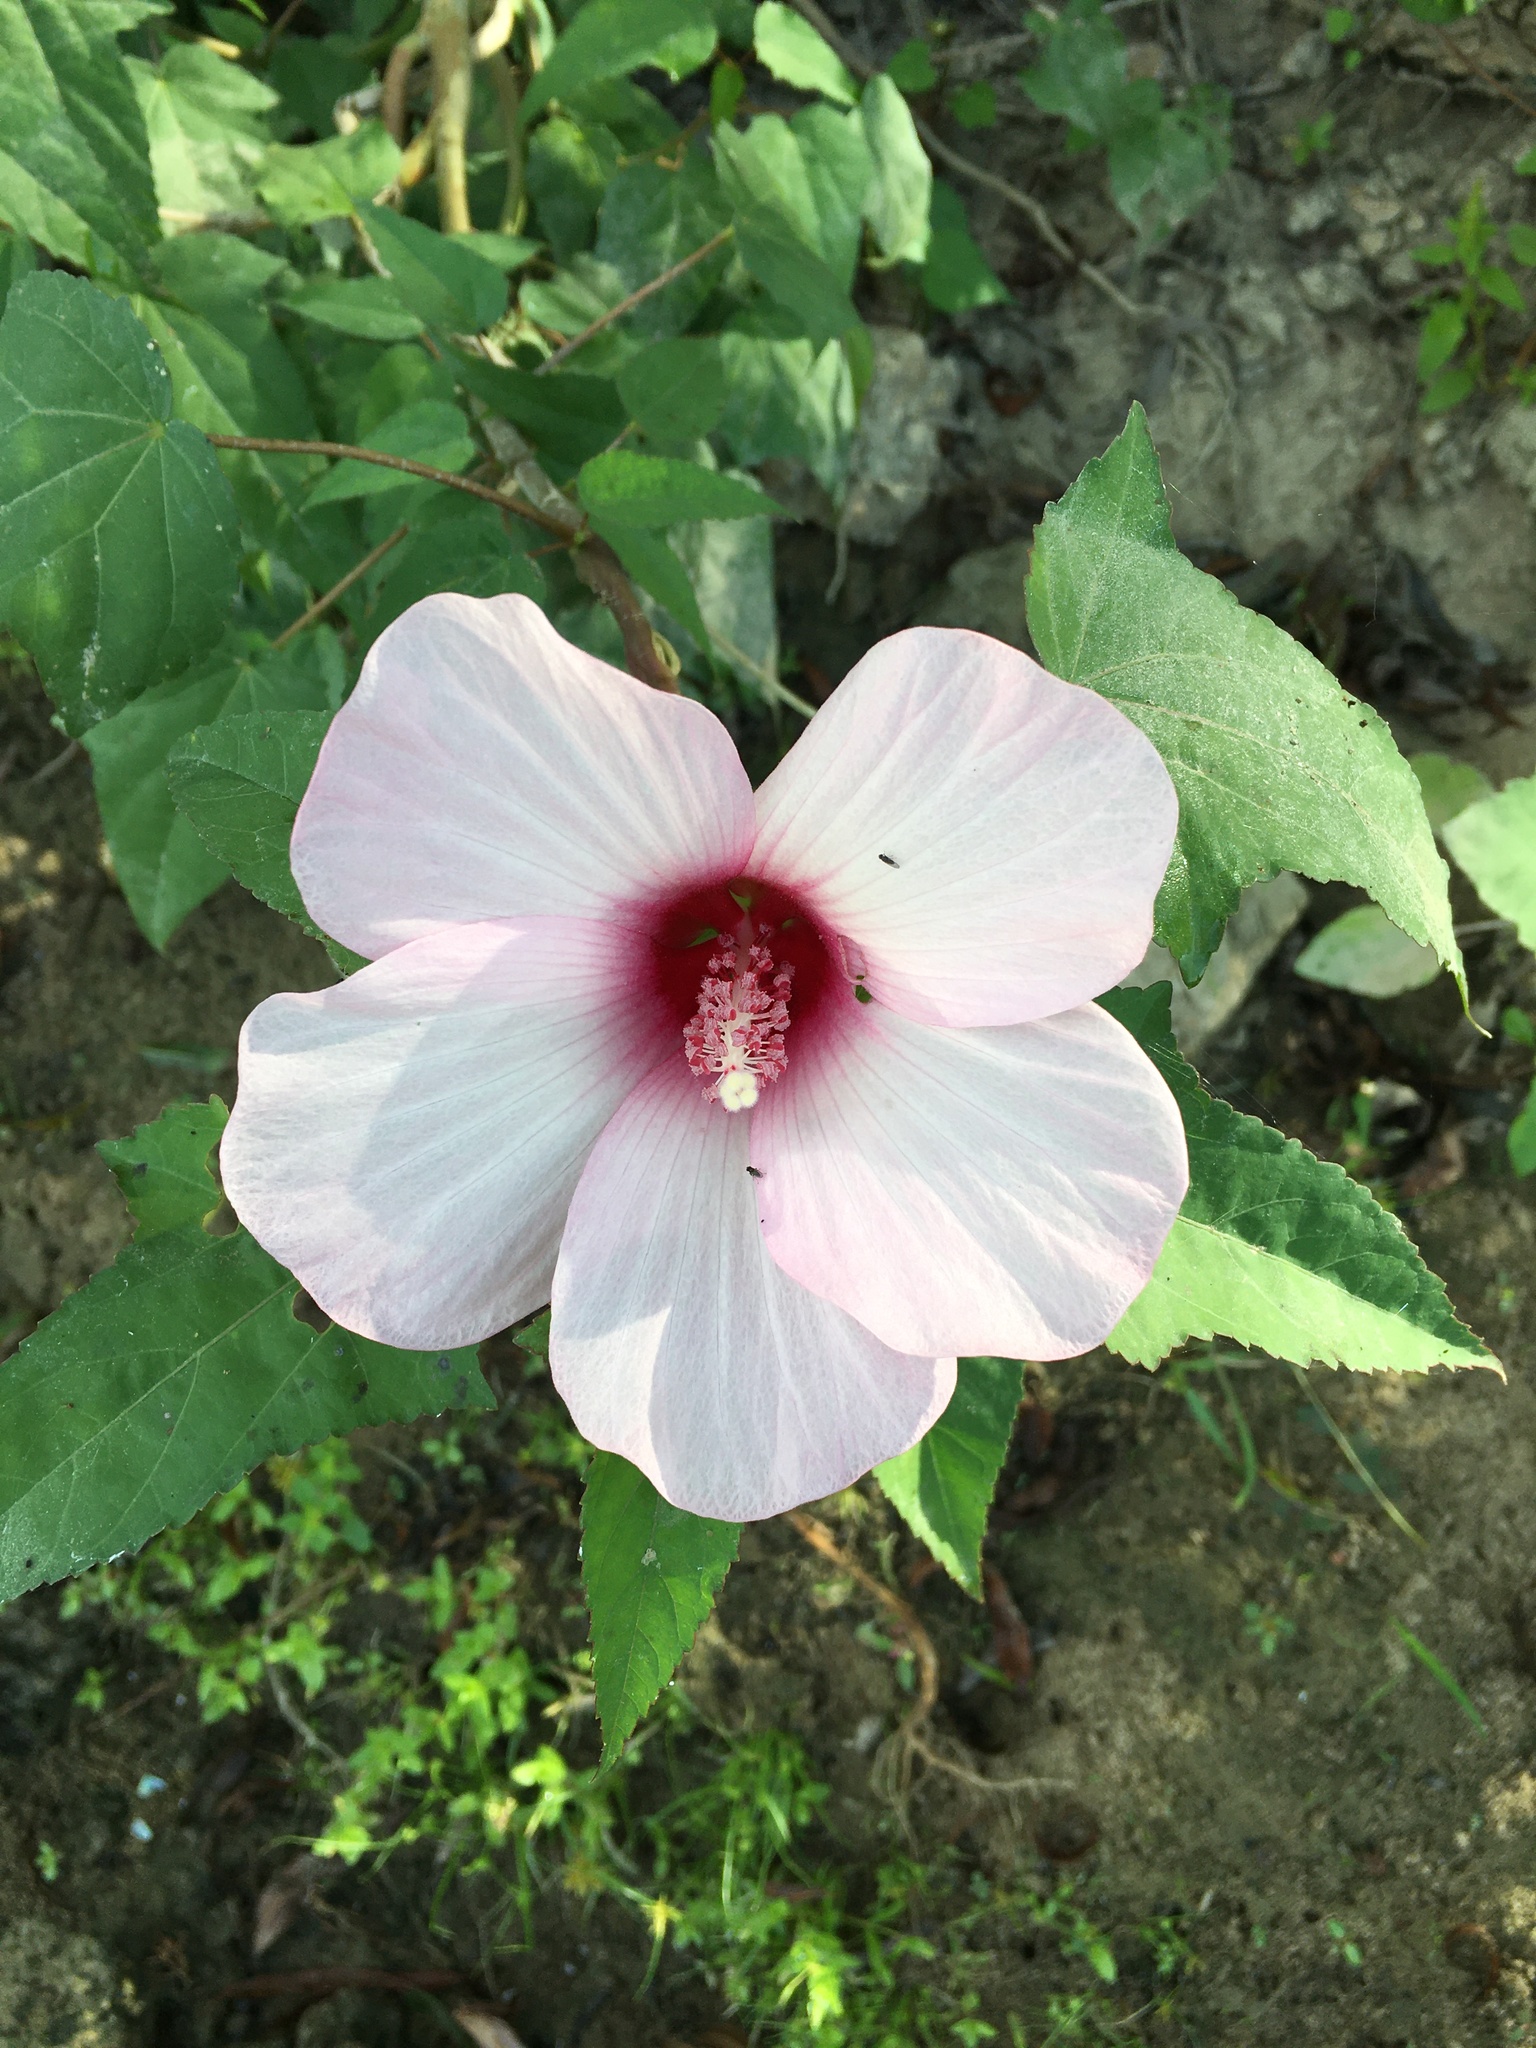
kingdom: Plantae
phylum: Tracheophyta
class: Magnoliopsida
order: Malvales
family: Malvaceae
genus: Hibiscus
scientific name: Hibiscus laevis
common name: Scarlet rose-mallow
